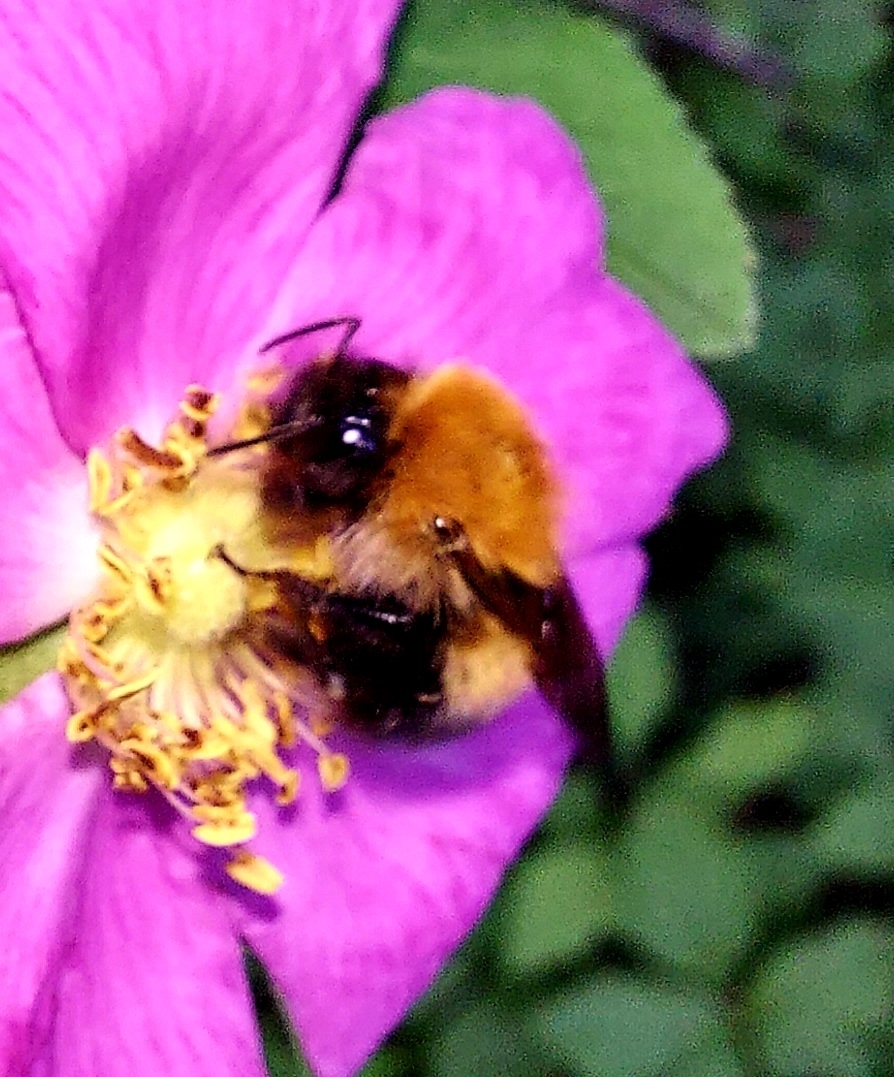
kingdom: Animalia
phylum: Arthropoda
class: Insecta
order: Hymenoptera
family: Apidae
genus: Bombus
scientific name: Bombus
